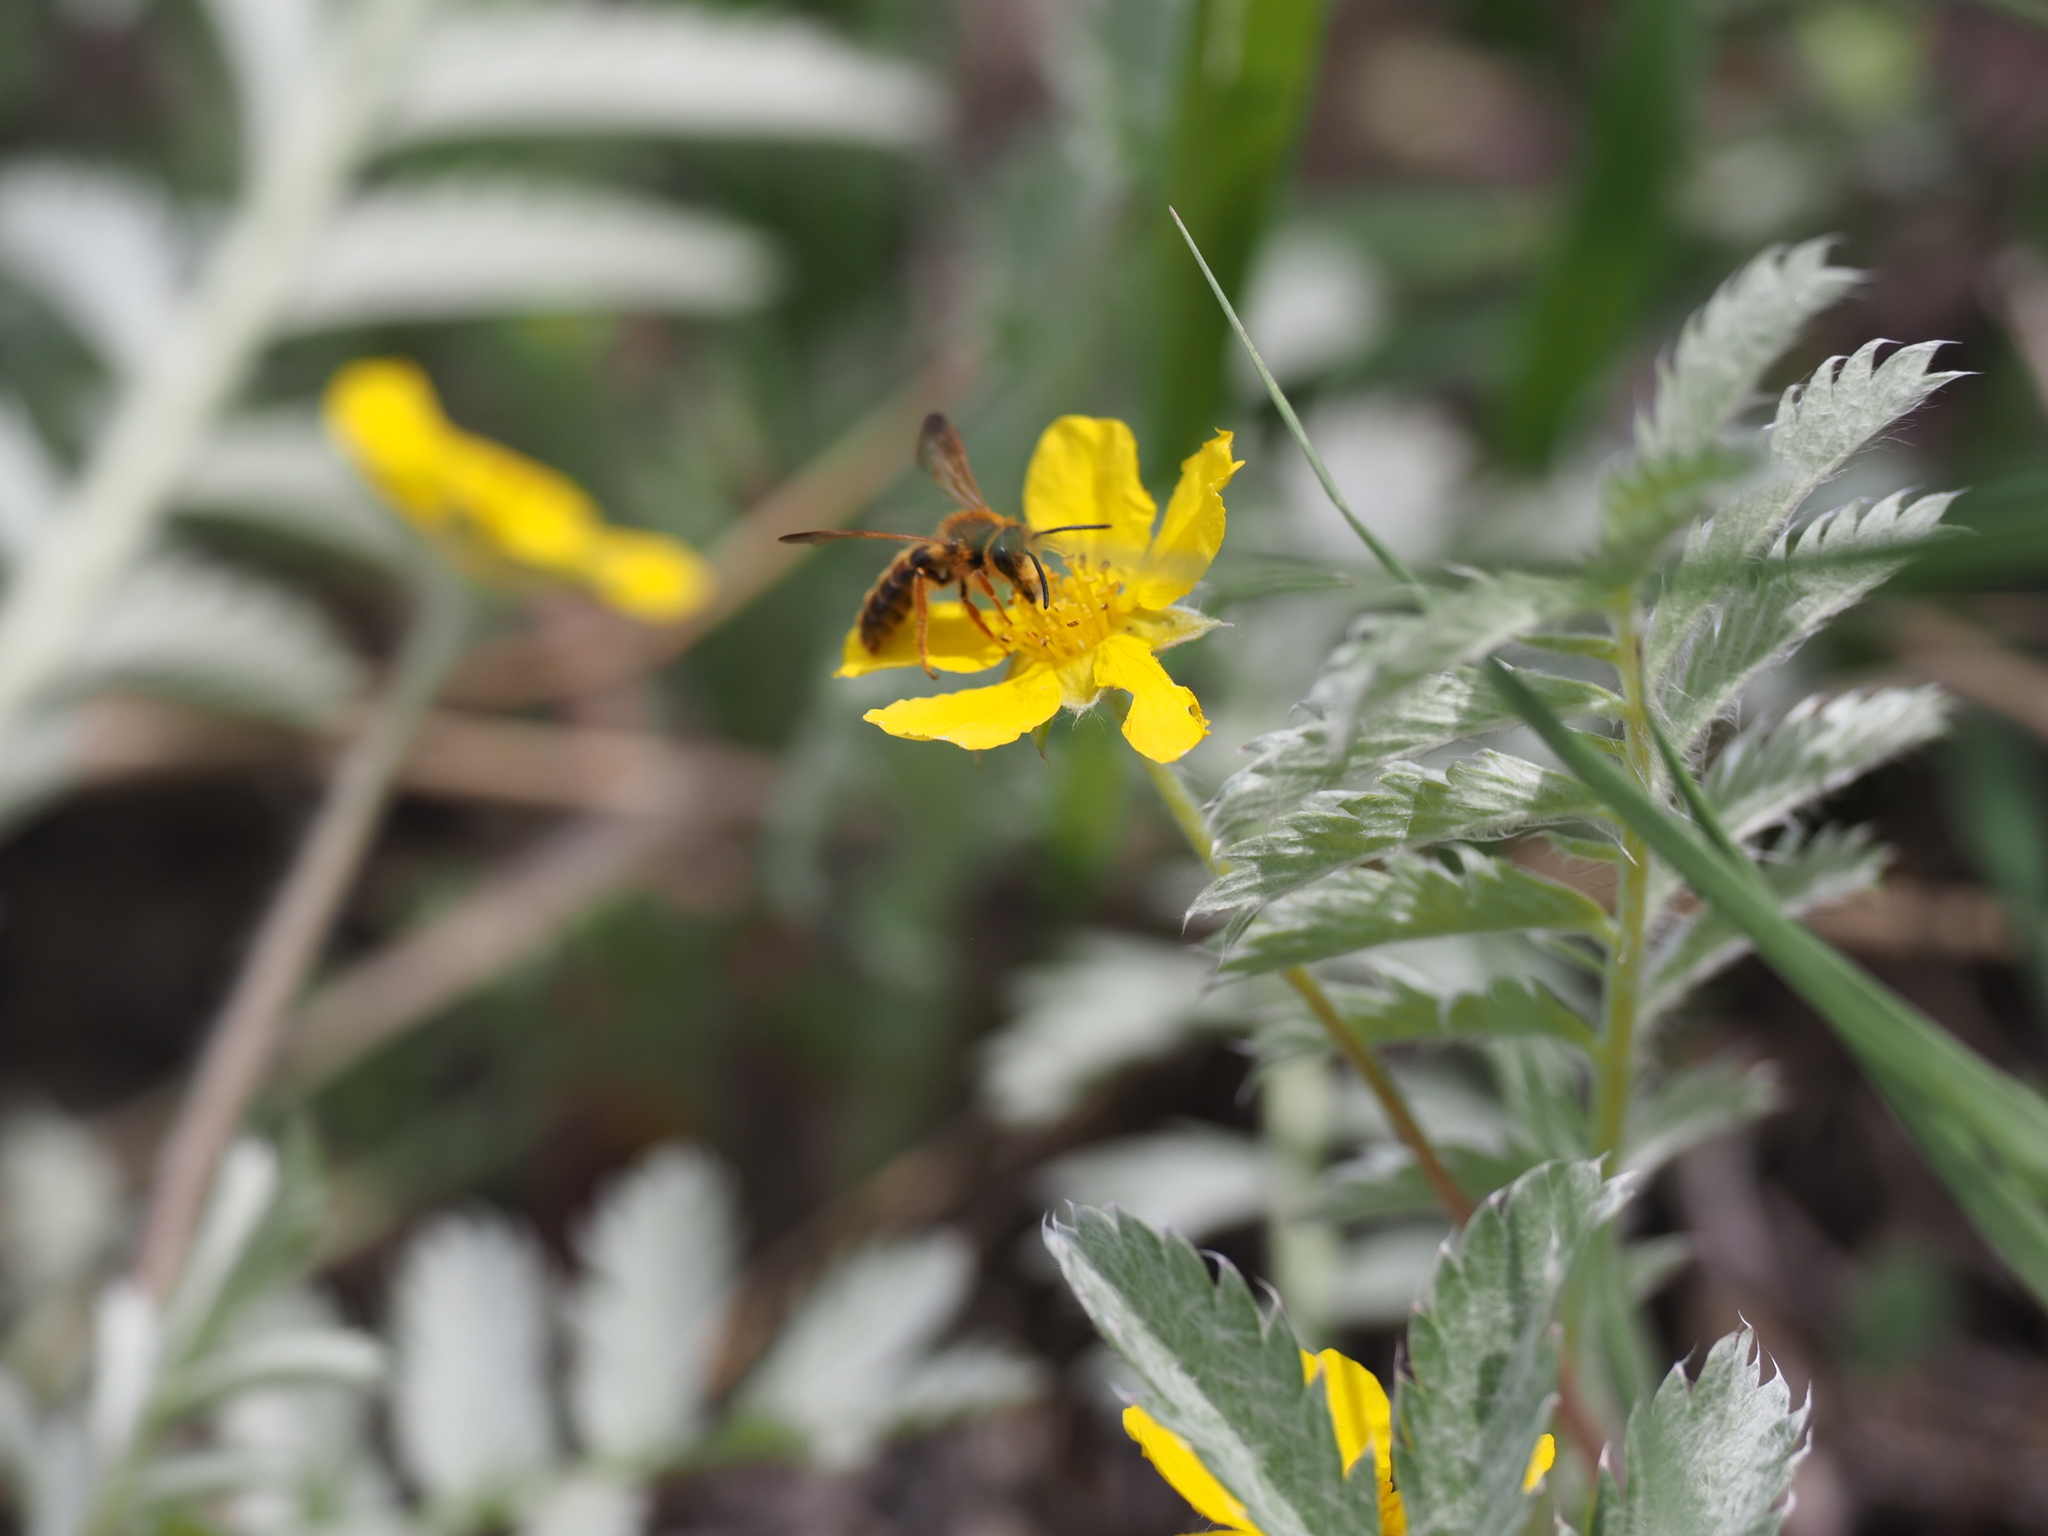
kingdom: Plantae
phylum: Tracheophyta
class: Magnoliopsida
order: Rosales
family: Rosaceae
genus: Argentina
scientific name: Argentina anserina
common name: Common silverweed
